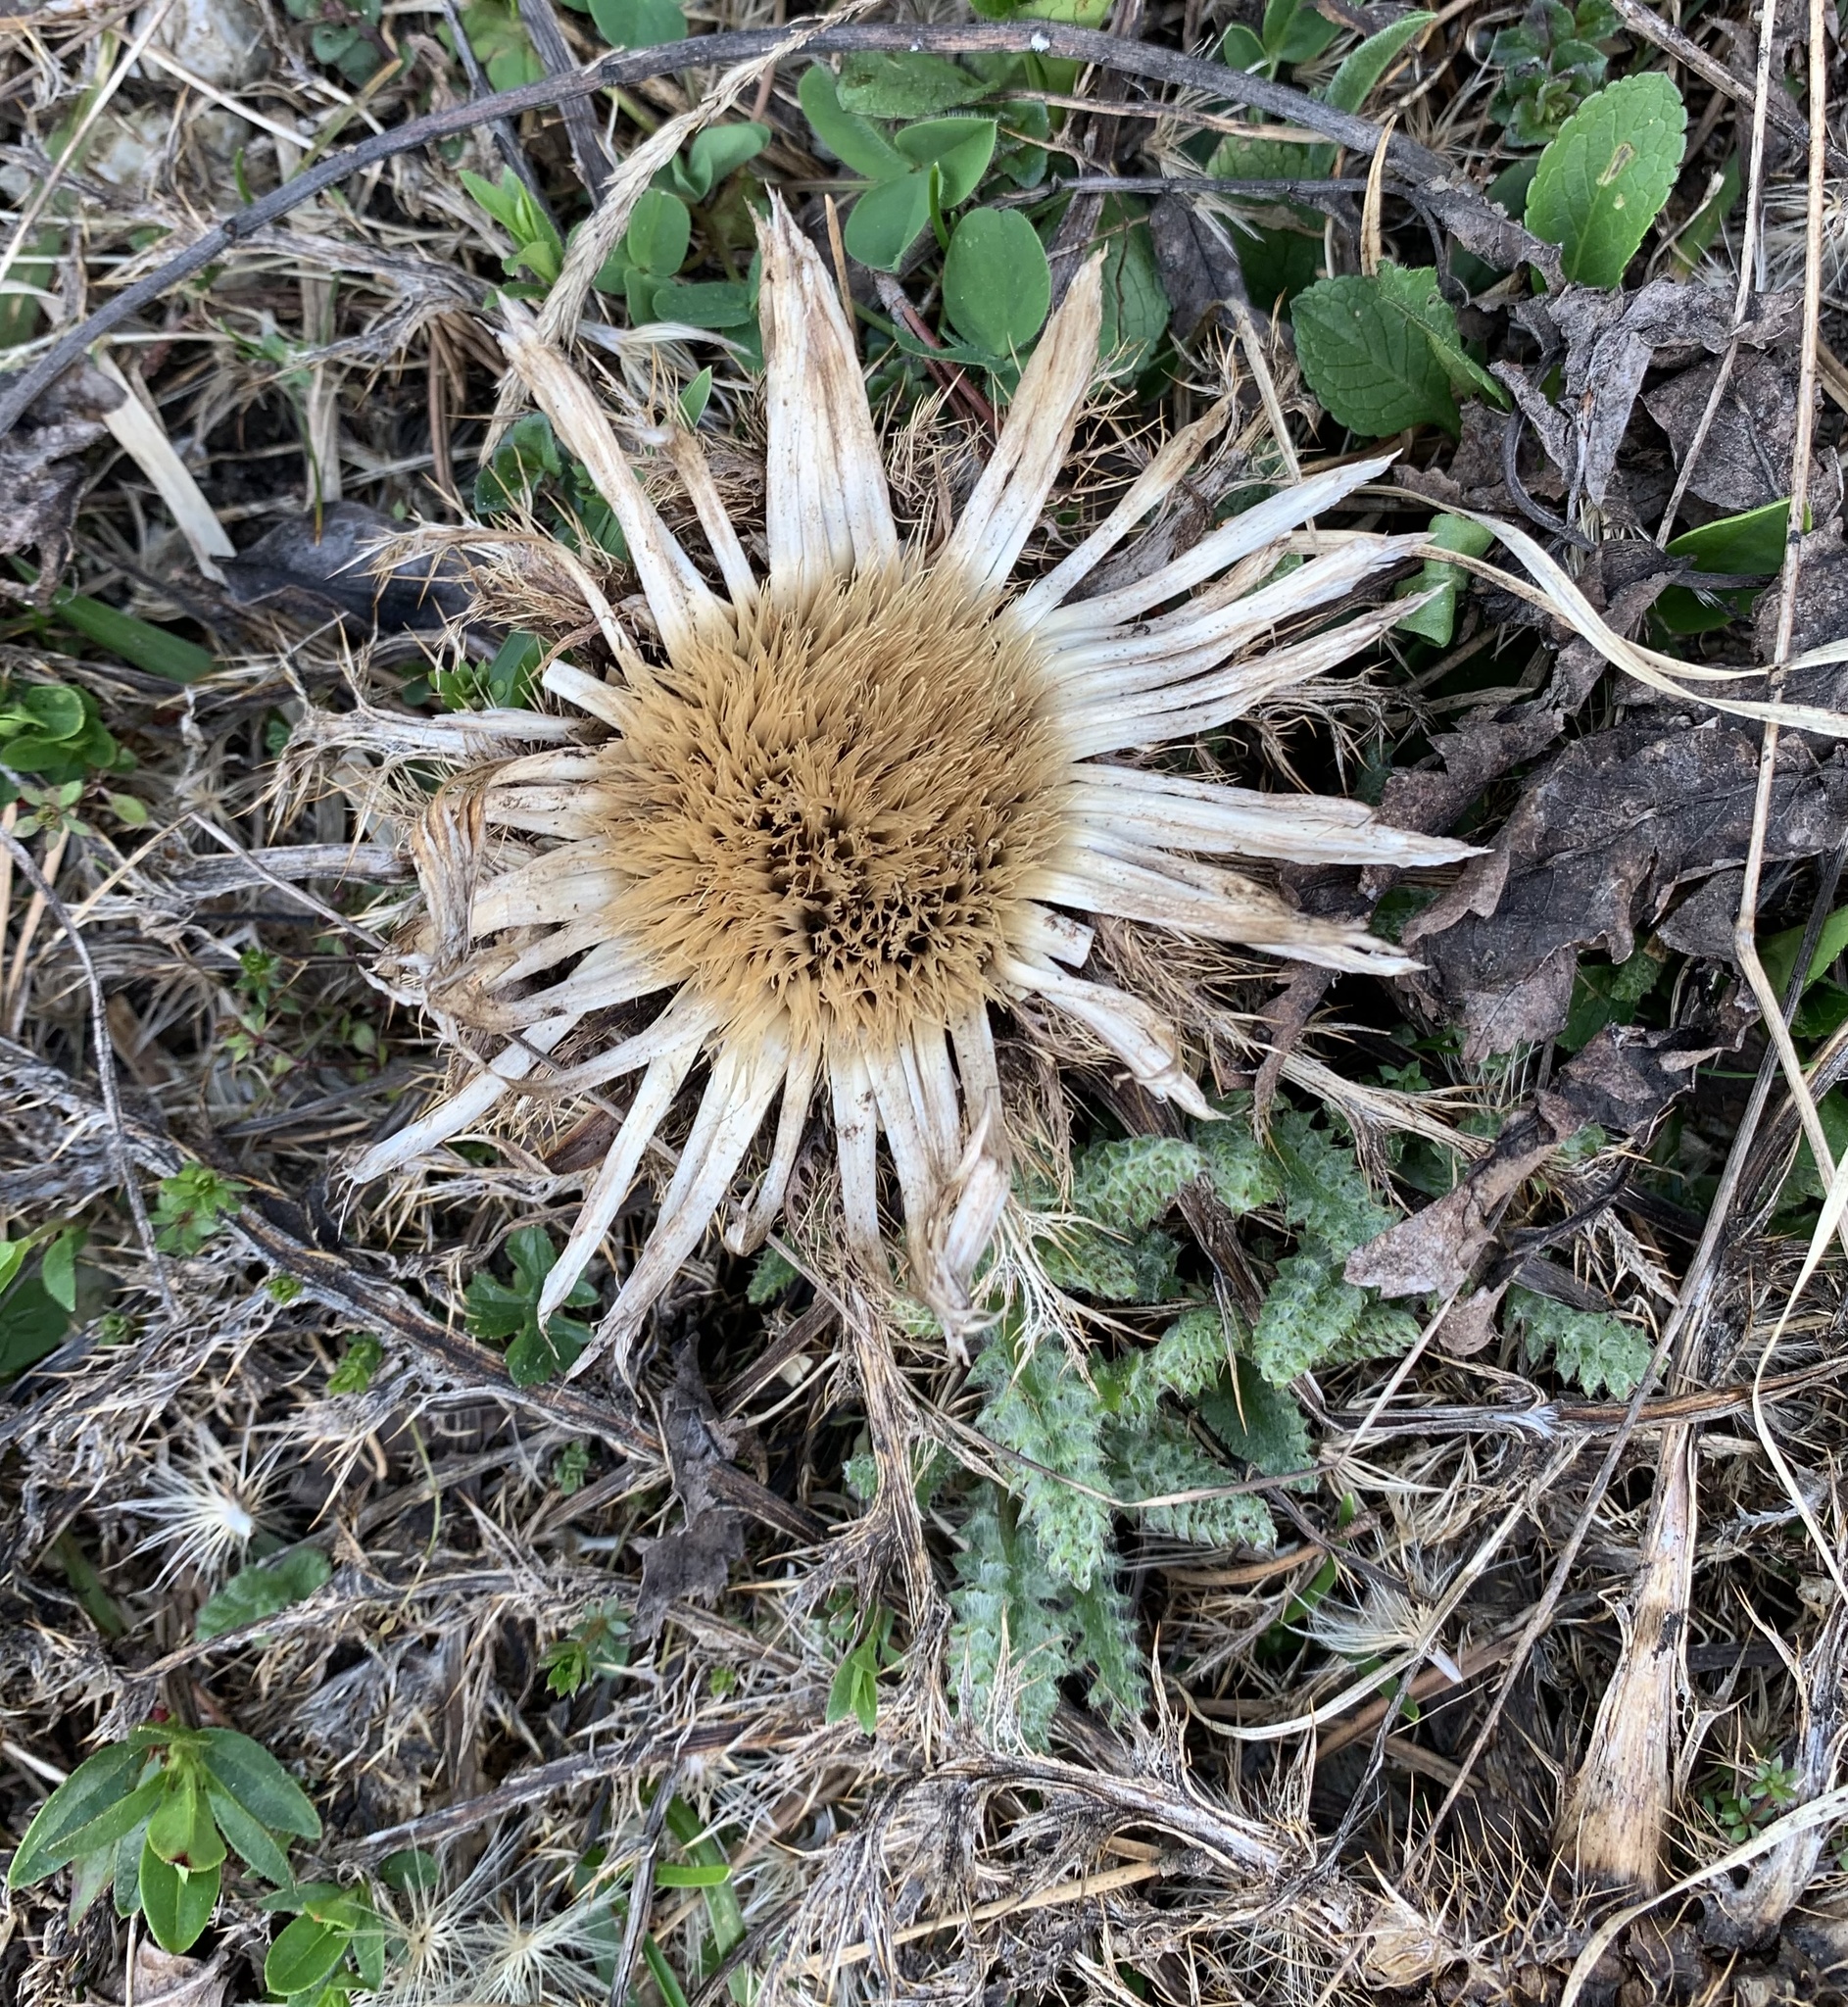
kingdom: Plantae
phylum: Tracheophyta
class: Magnoliopsida
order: Asterales
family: Asteraceae
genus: Carlina
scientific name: Carlina acaulis
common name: Stemless carline thistle
